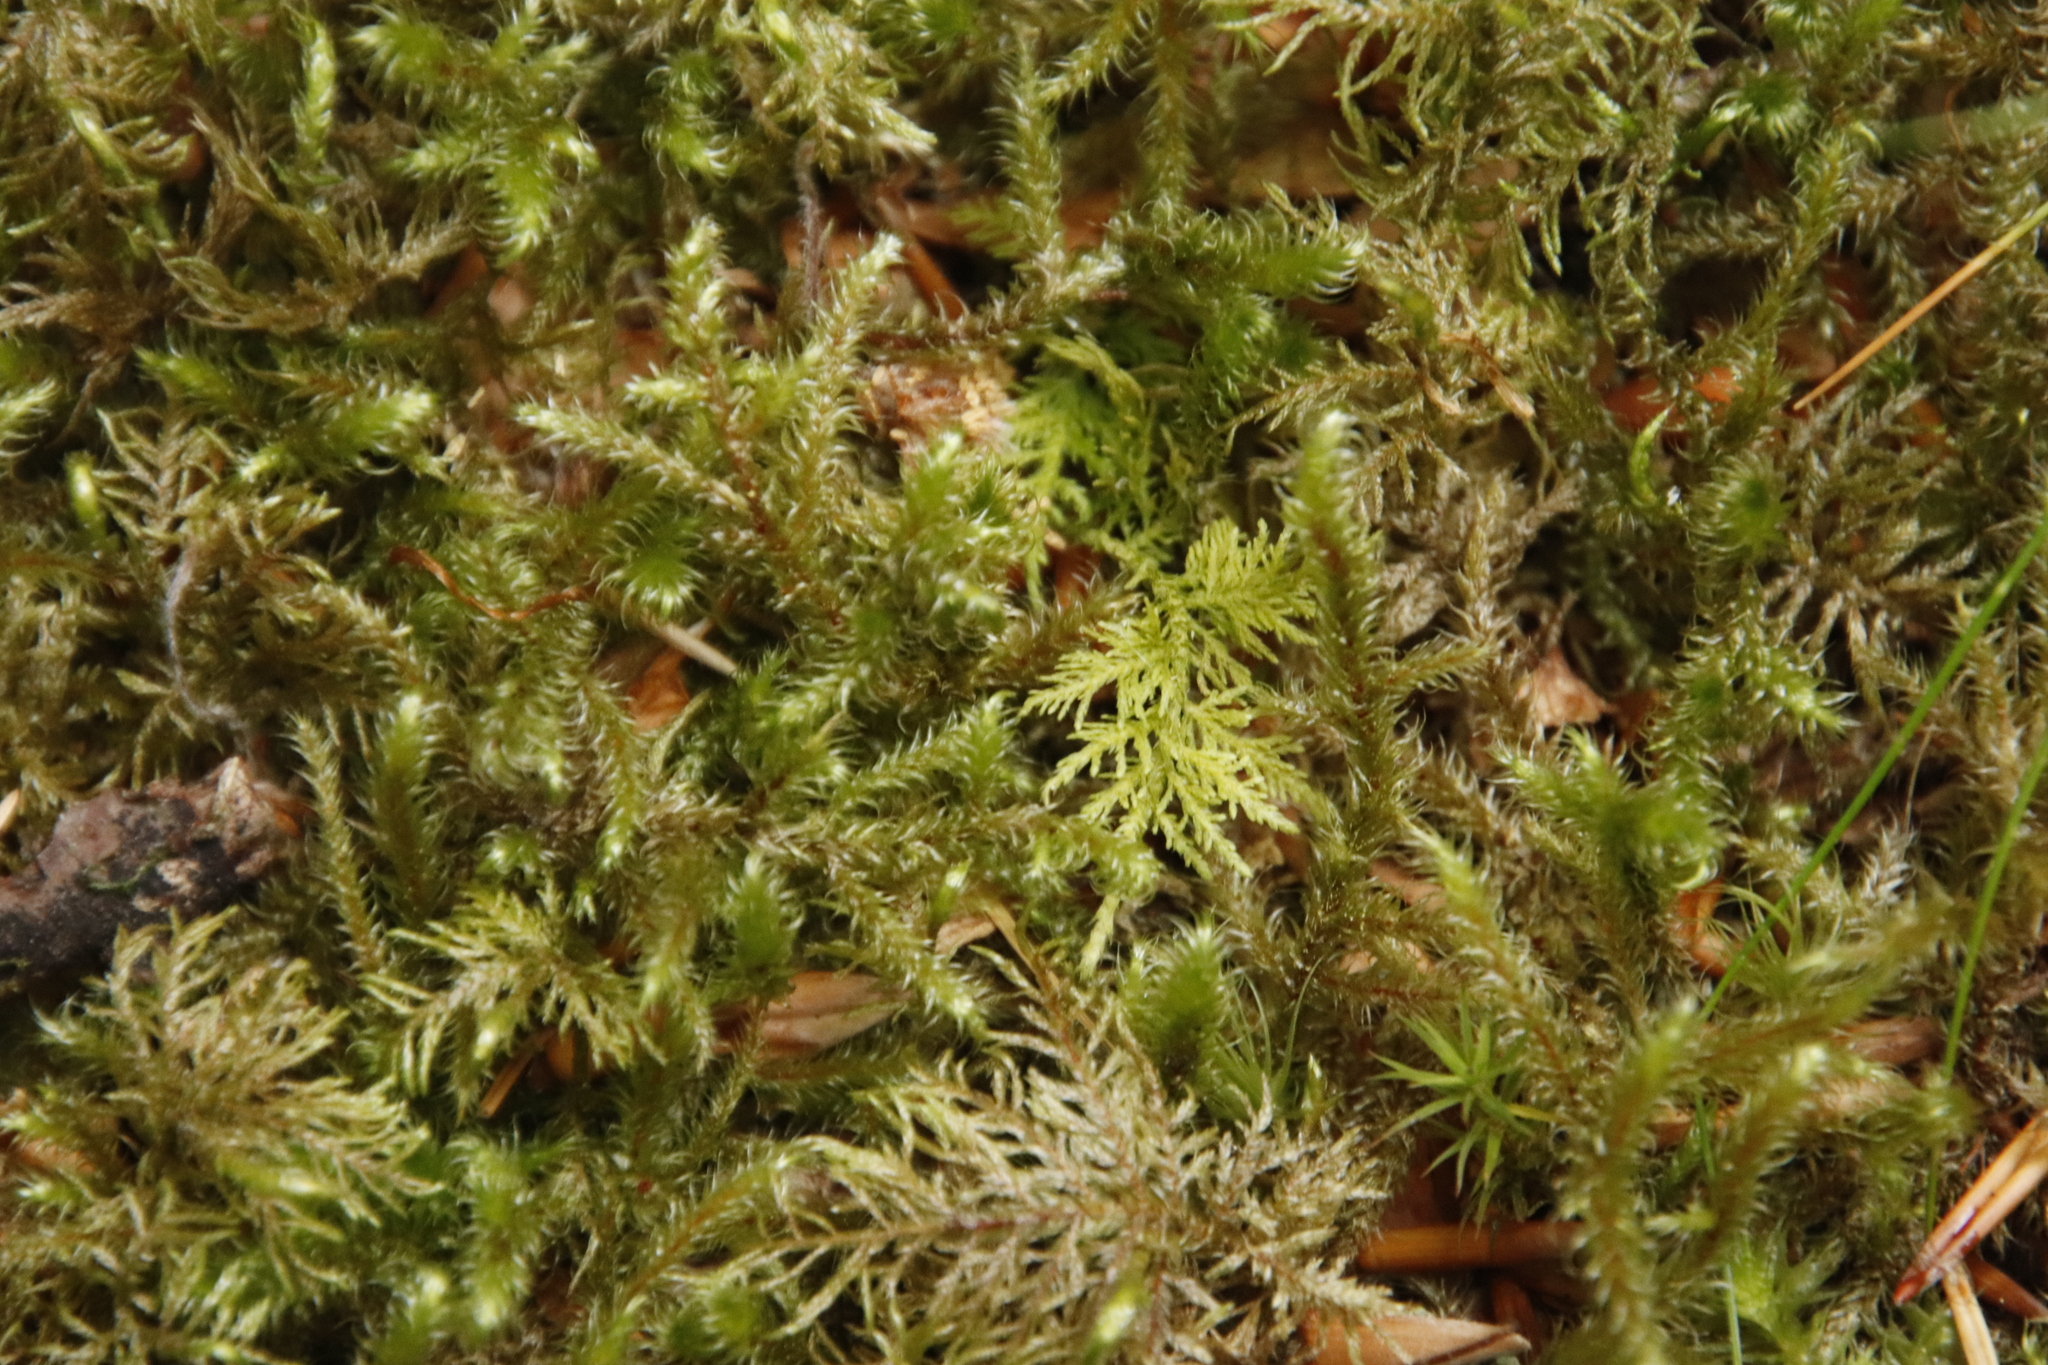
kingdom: Plantae
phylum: Bryophyta
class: Bryopsida
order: Hypnales
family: Hylocomiaceae
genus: Rhytidiadelphus
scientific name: Rhytidiadelphus loreus
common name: Lanky moss
